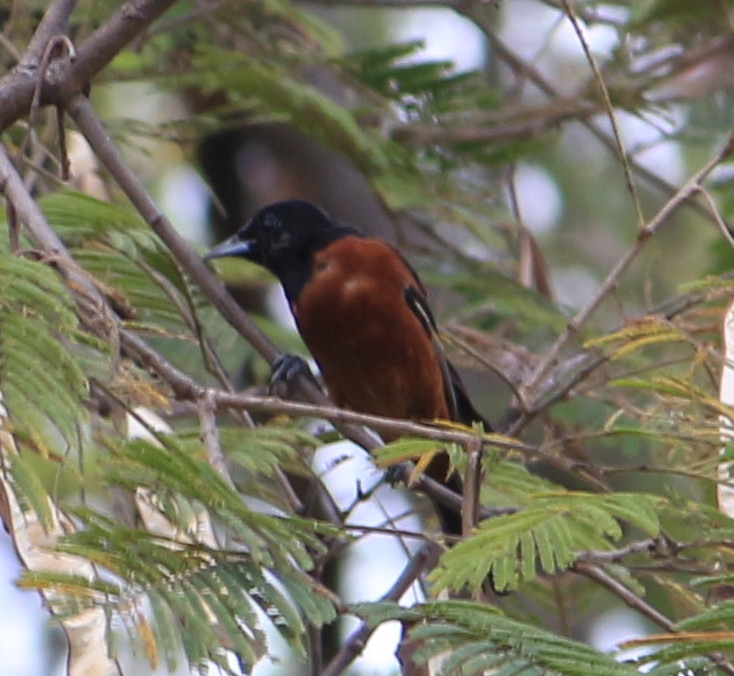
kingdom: Animalia
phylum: Chordata
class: Aves
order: Passeriformes
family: Icteridae
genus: Icterus
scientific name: Icterus spurius
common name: Orchard oriole
